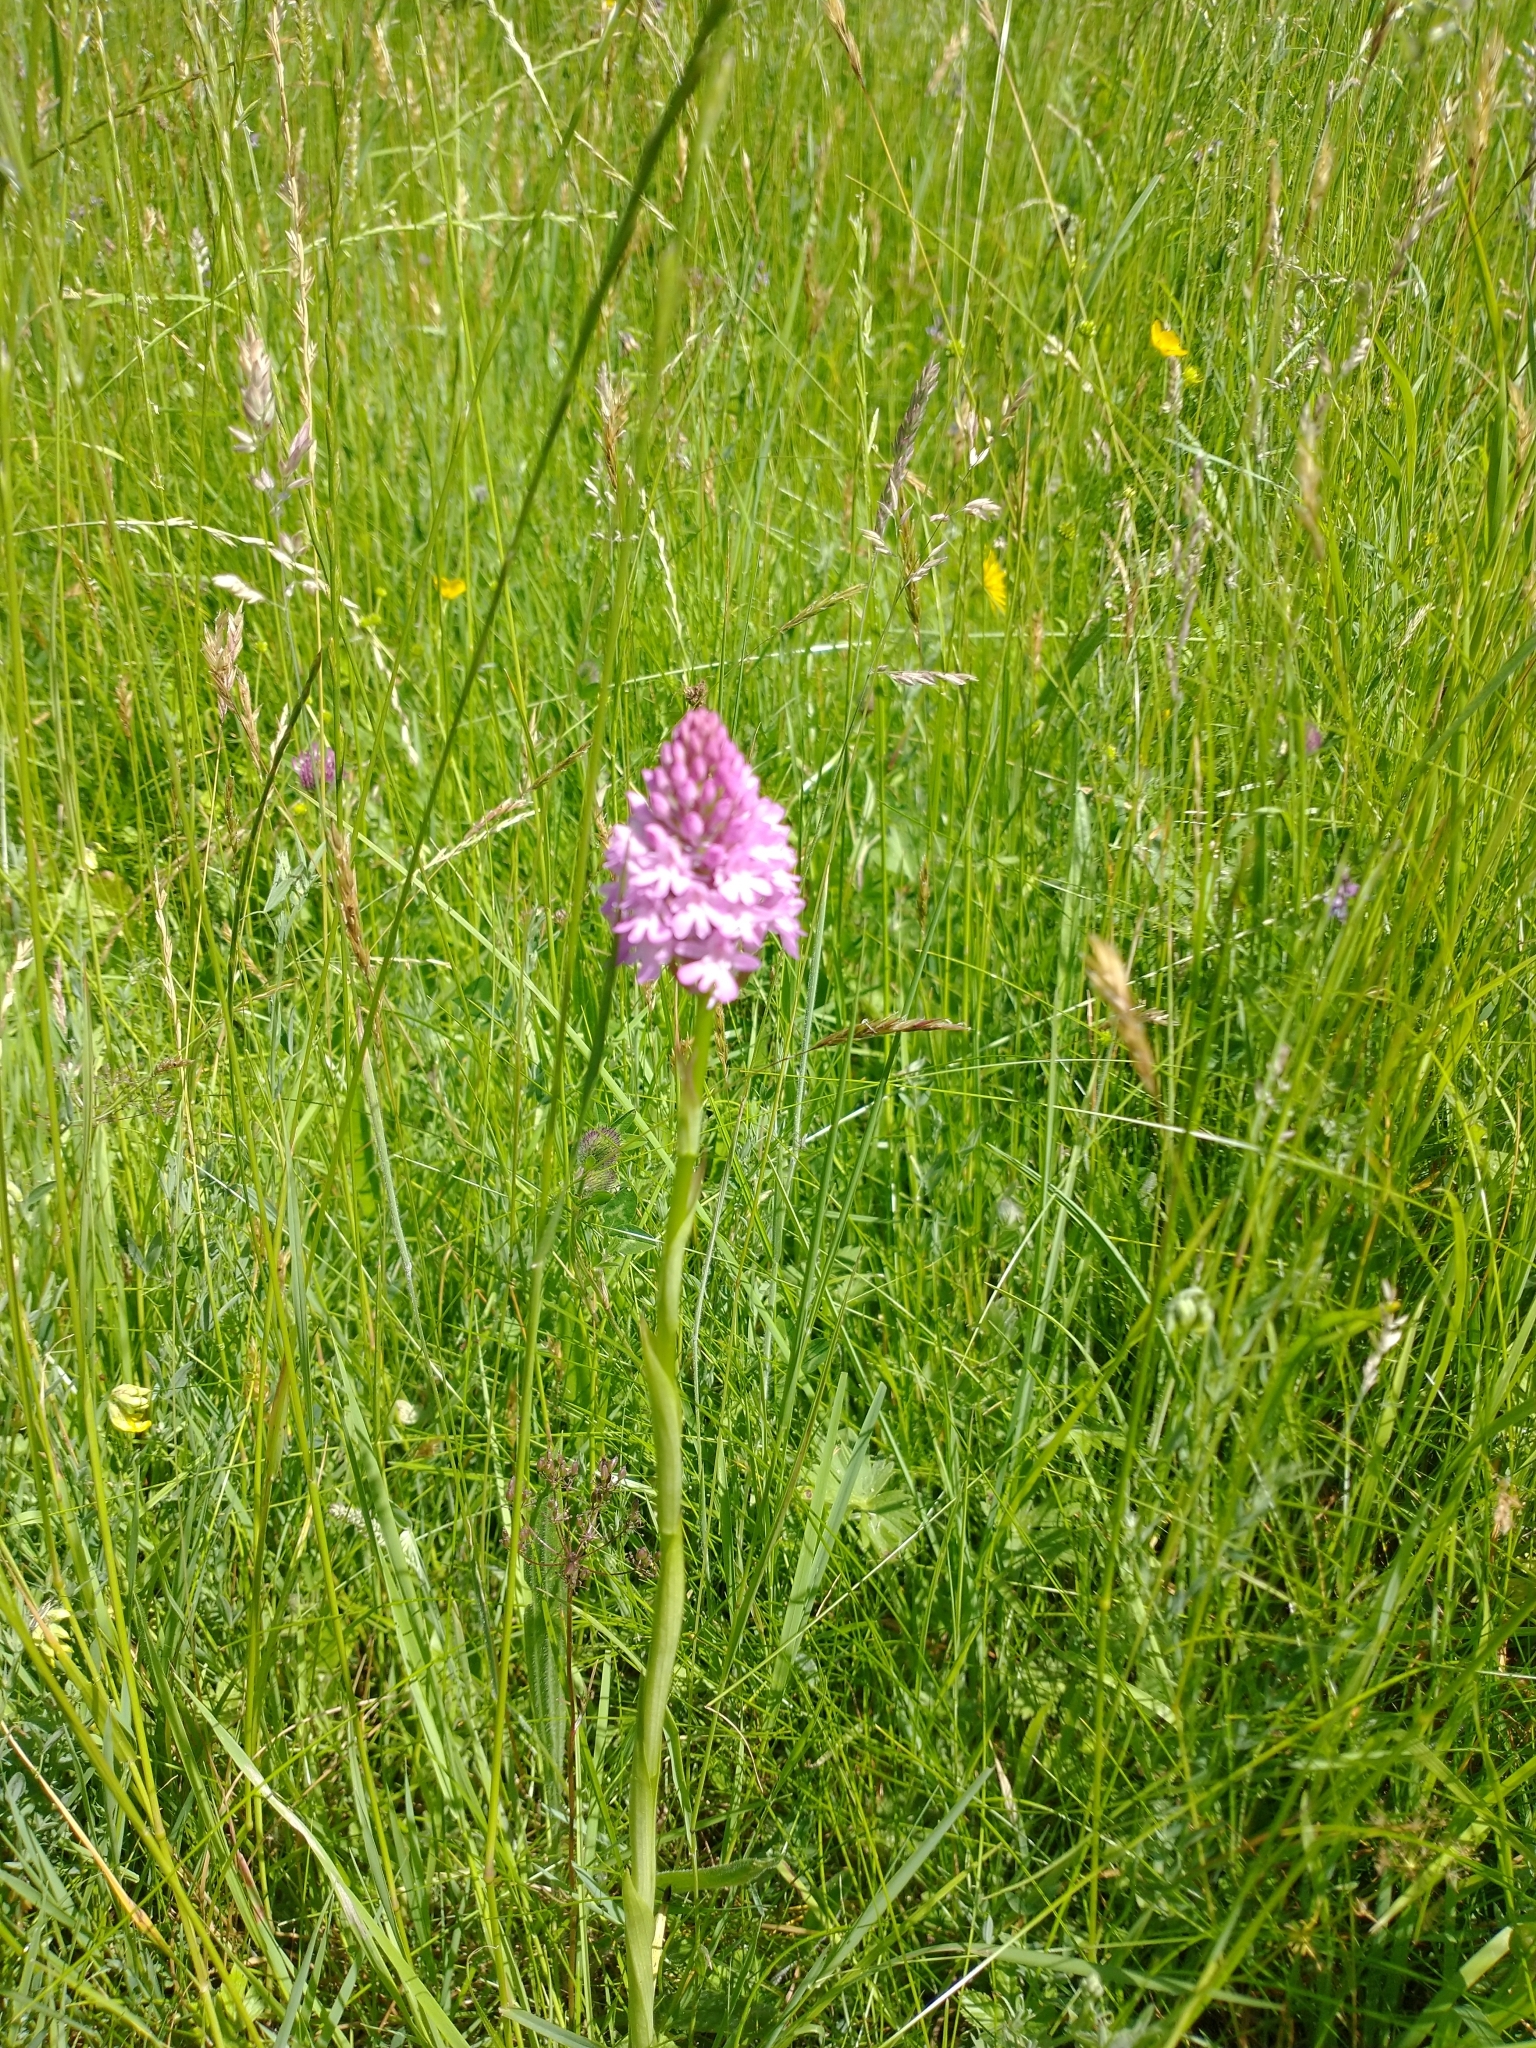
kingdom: Plantae
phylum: Tracheophyta
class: Liliopsida
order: Asparagales
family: Orchidaceae
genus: Anacamptis
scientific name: Anacamptis pyramidalis
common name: Pyramidal orchid
